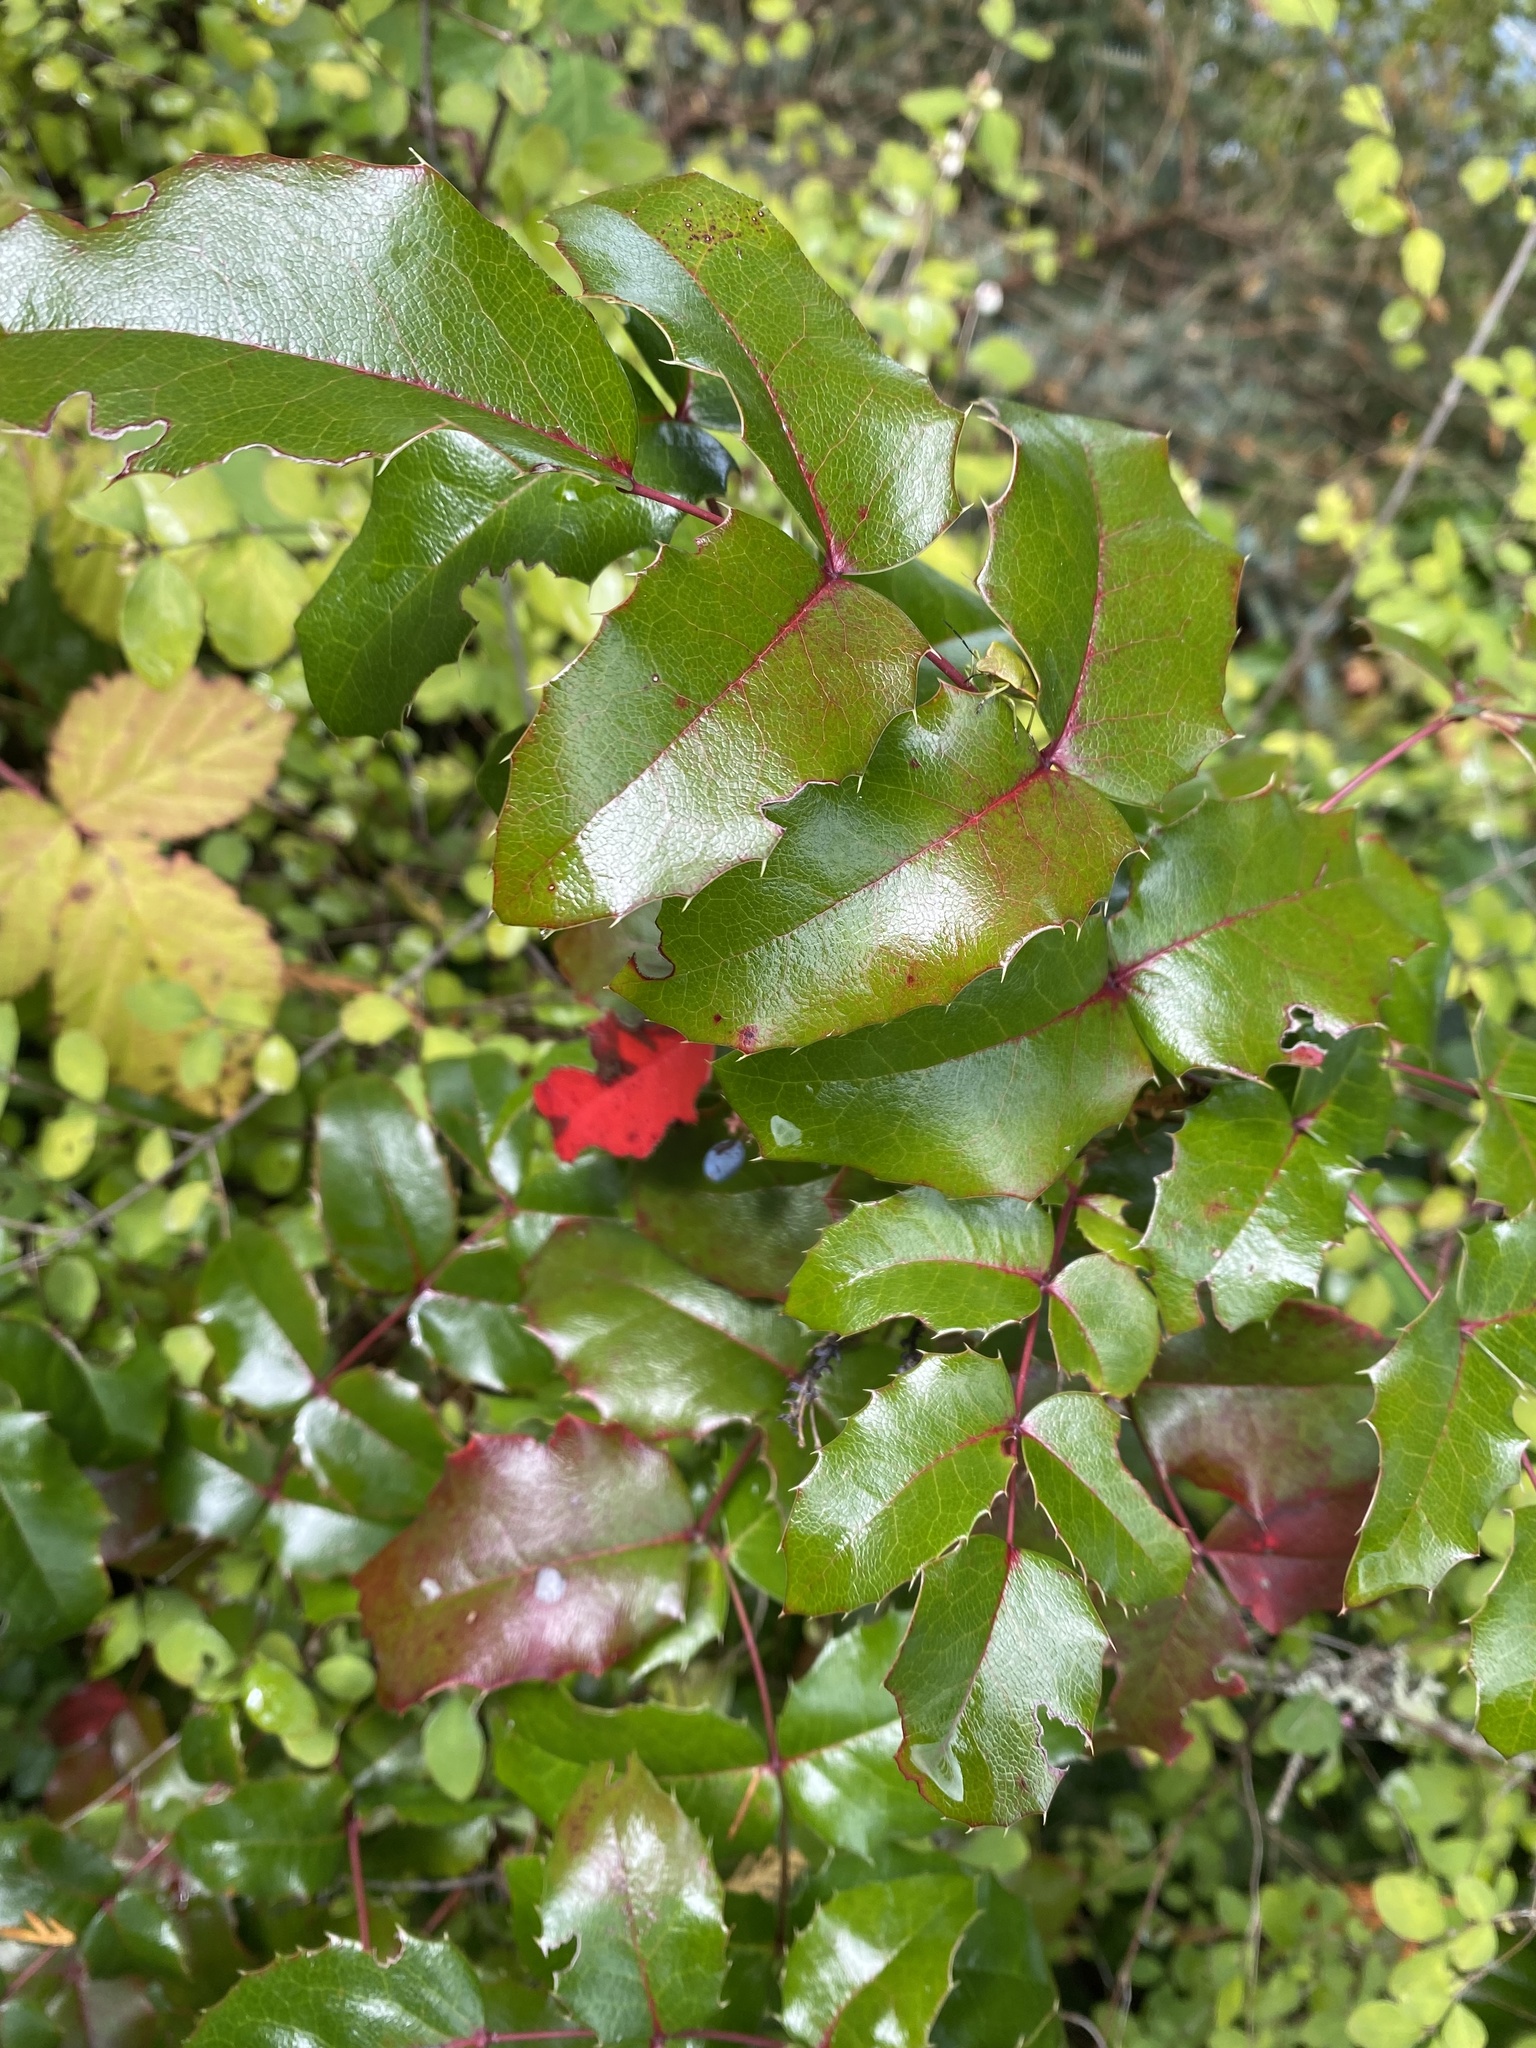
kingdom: Plantae
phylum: Tracheophyta
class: Magnoliopsida
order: Ranunculales
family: Berberidaceae
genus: Mahonia
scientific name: Mahonia aquifolium
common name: Oregon-grape
